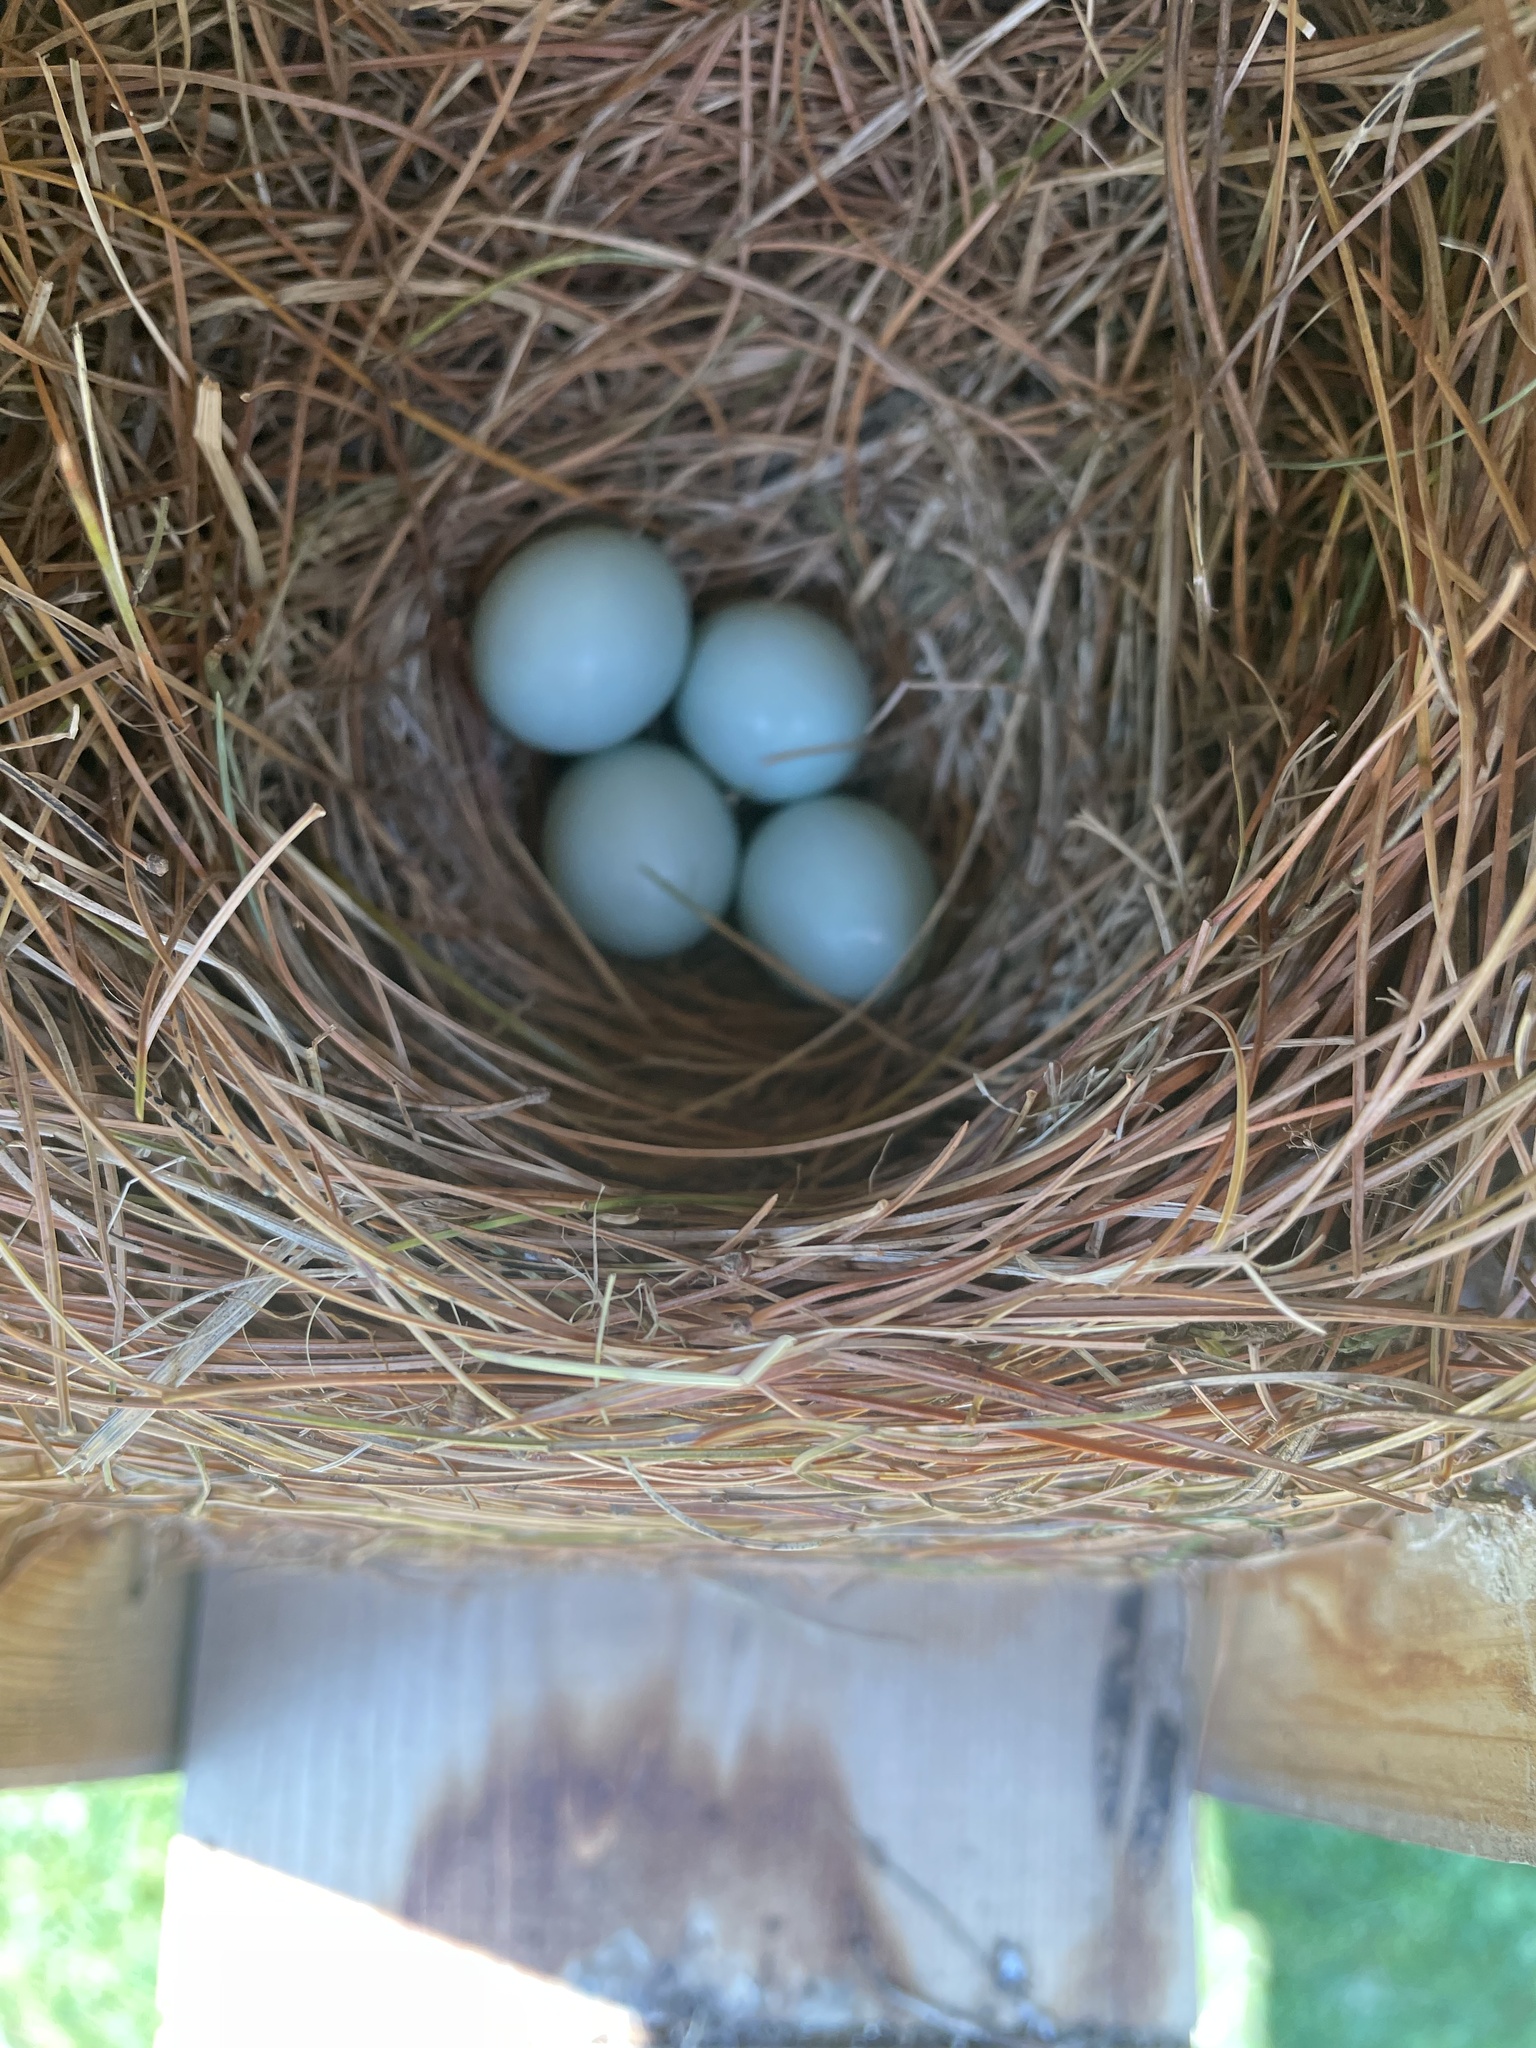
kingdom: Animalia
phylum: Chordata
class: Aves
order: Passeriformes
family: Turdidae
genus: Sialia
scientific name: Sialia sialis
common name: Eastern bluebird
